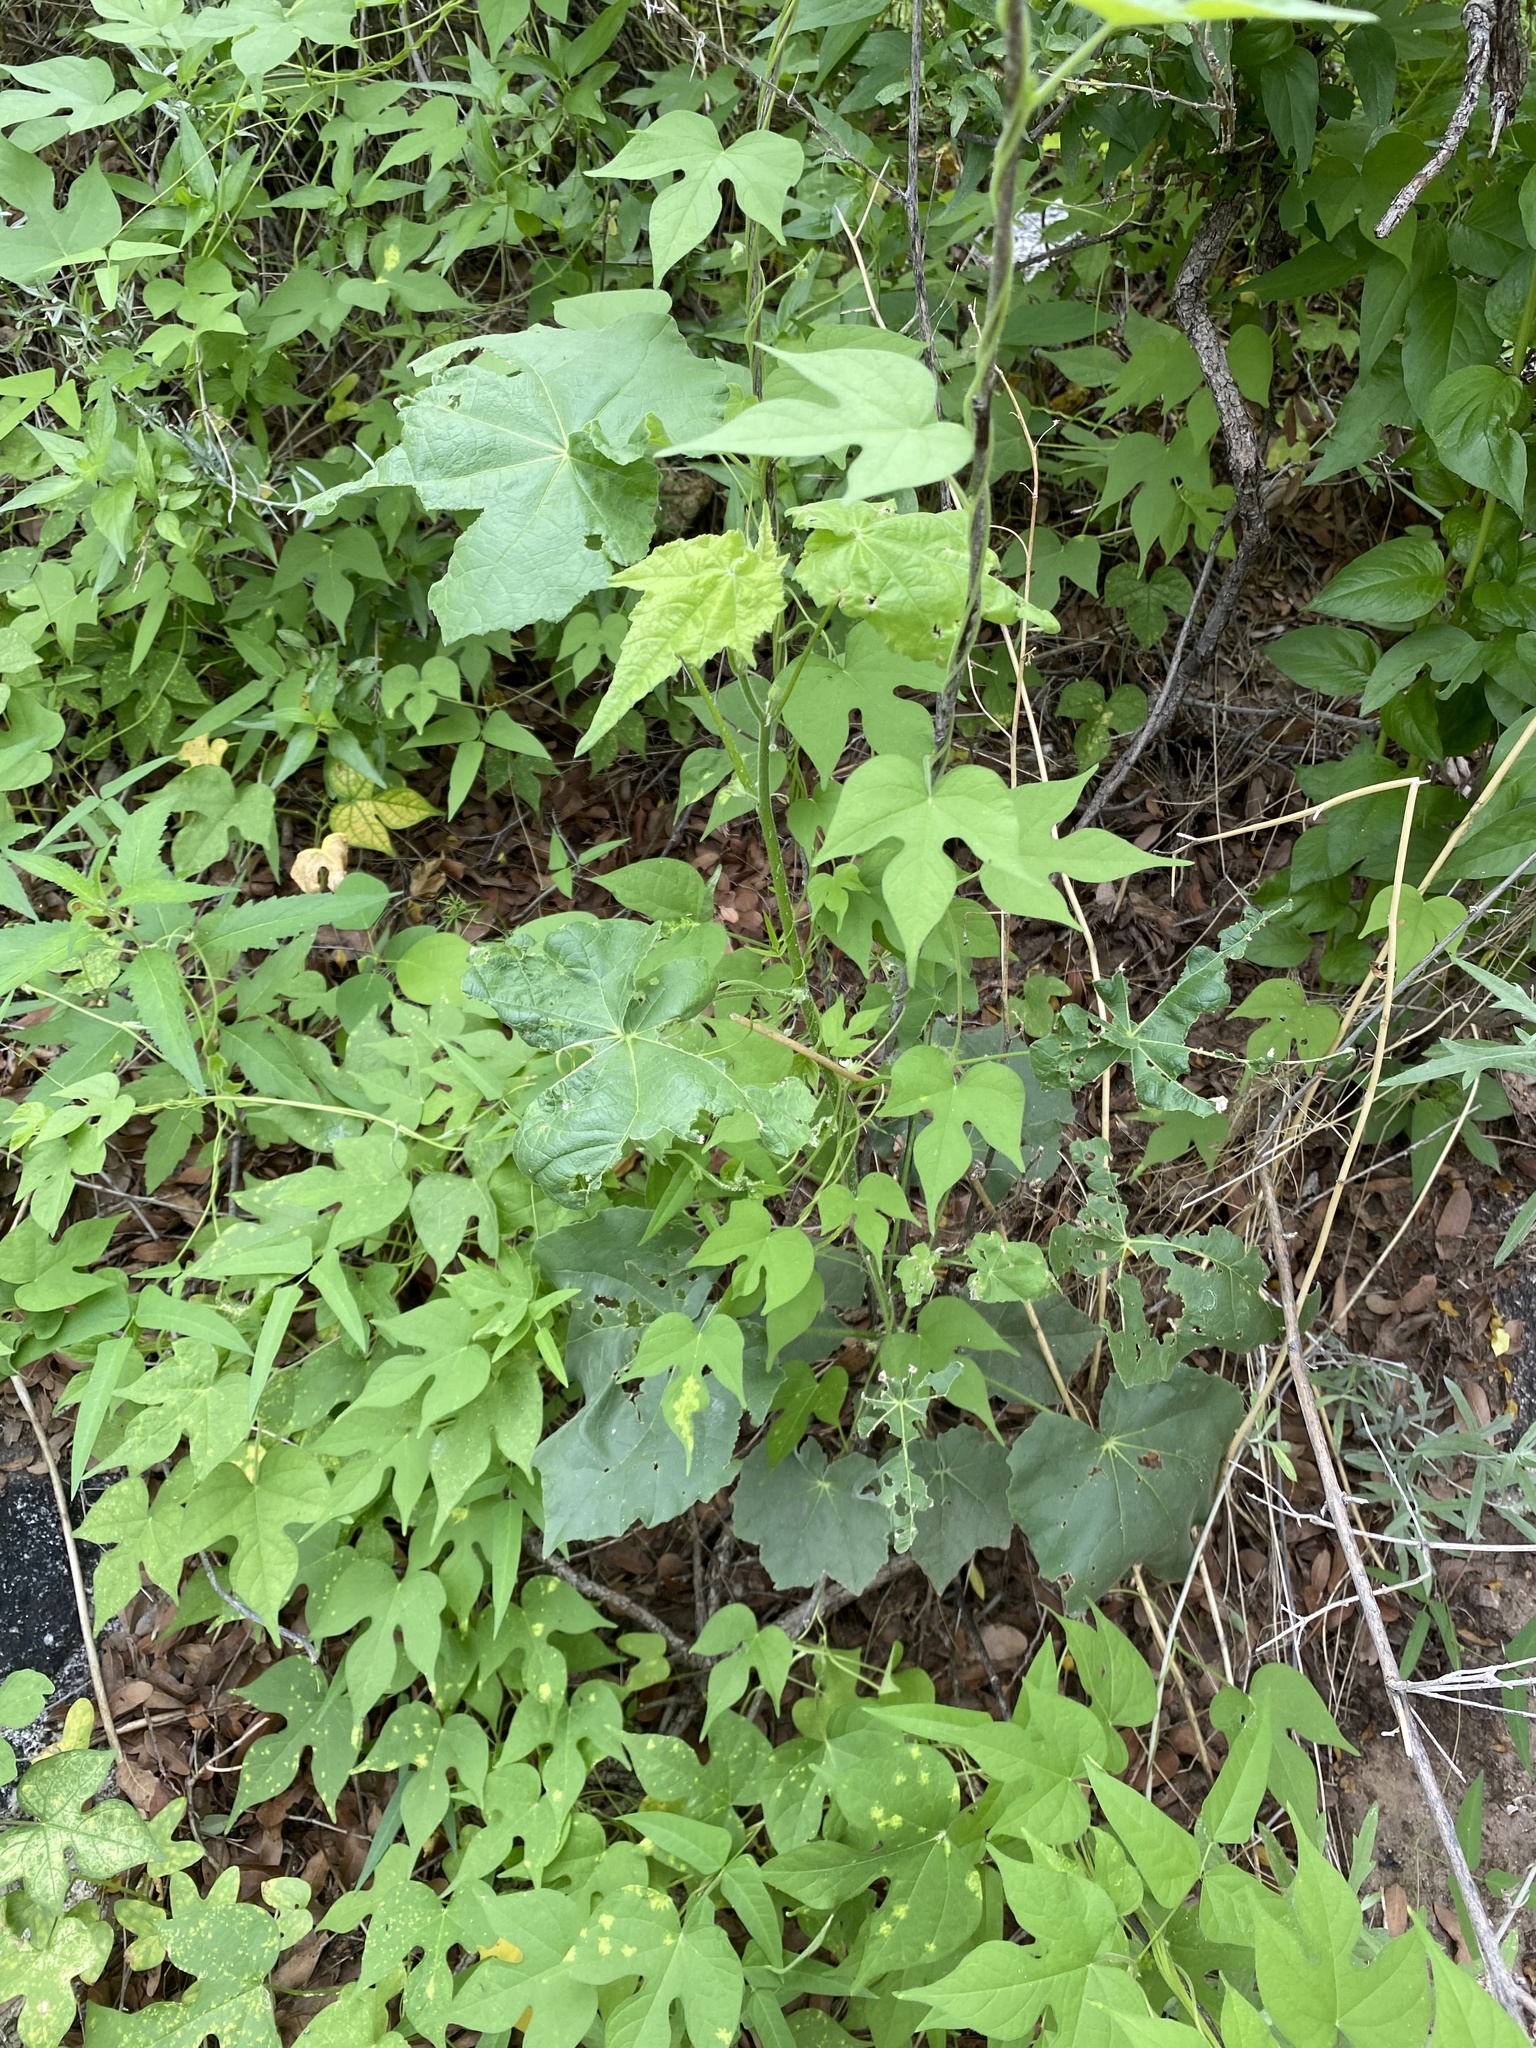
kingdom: Plantae
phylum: Tracheophyta
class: Magnoliopsida
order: Malvales
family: Malvaceae
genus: Abutilon
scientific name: Abutilon mollicomum
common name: Sonoran indian-mallow
